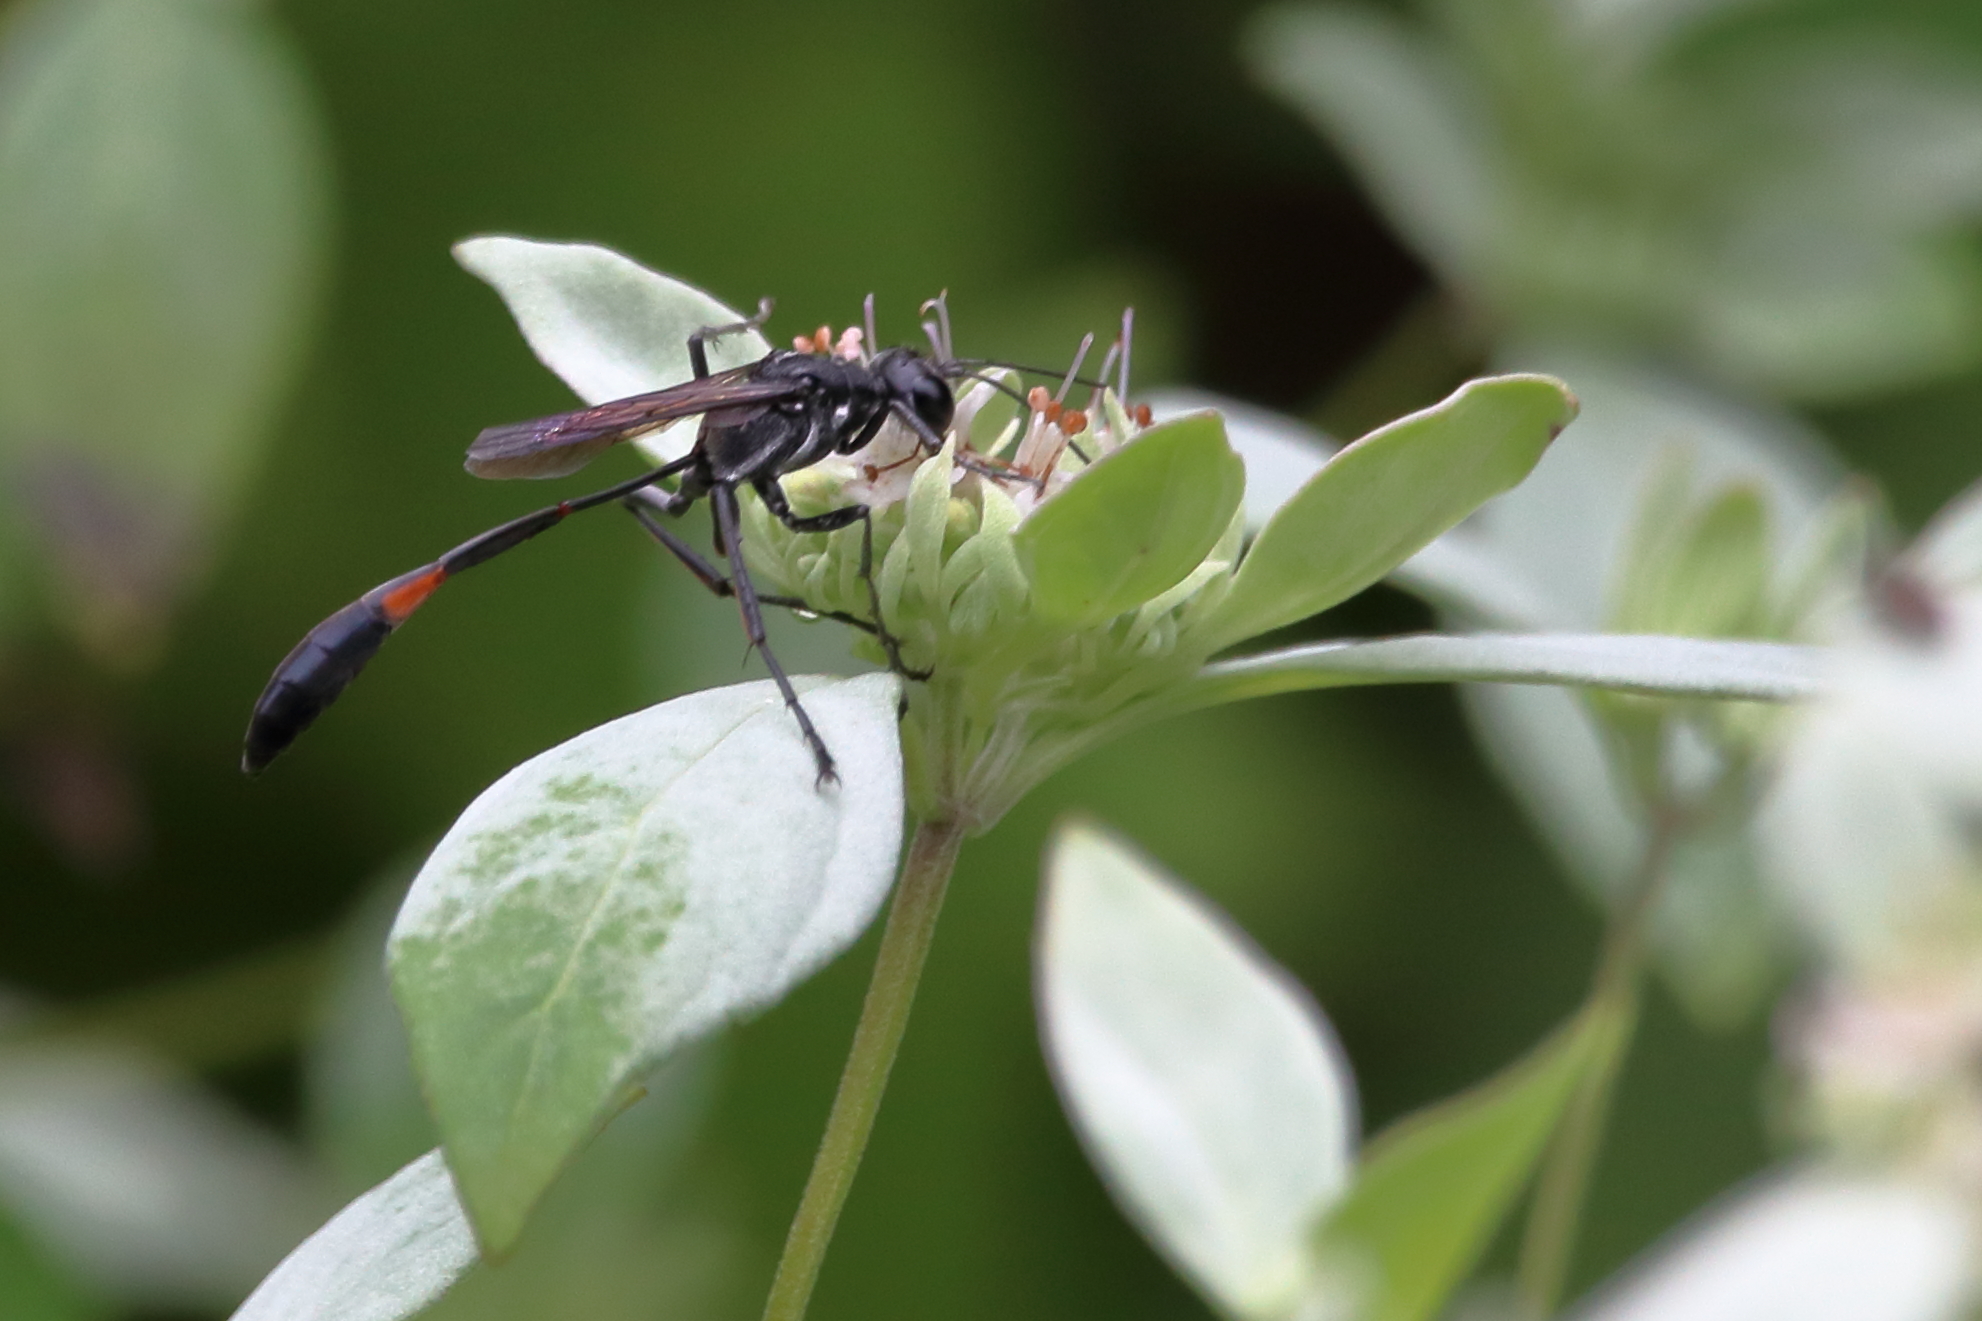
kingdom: Animalia
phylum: Arthropoda
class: Insecta
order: Hymenoptera
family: Sphecidae
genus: Ammophila
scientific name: Ammophila procera
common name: Common thread-waisted wasp
